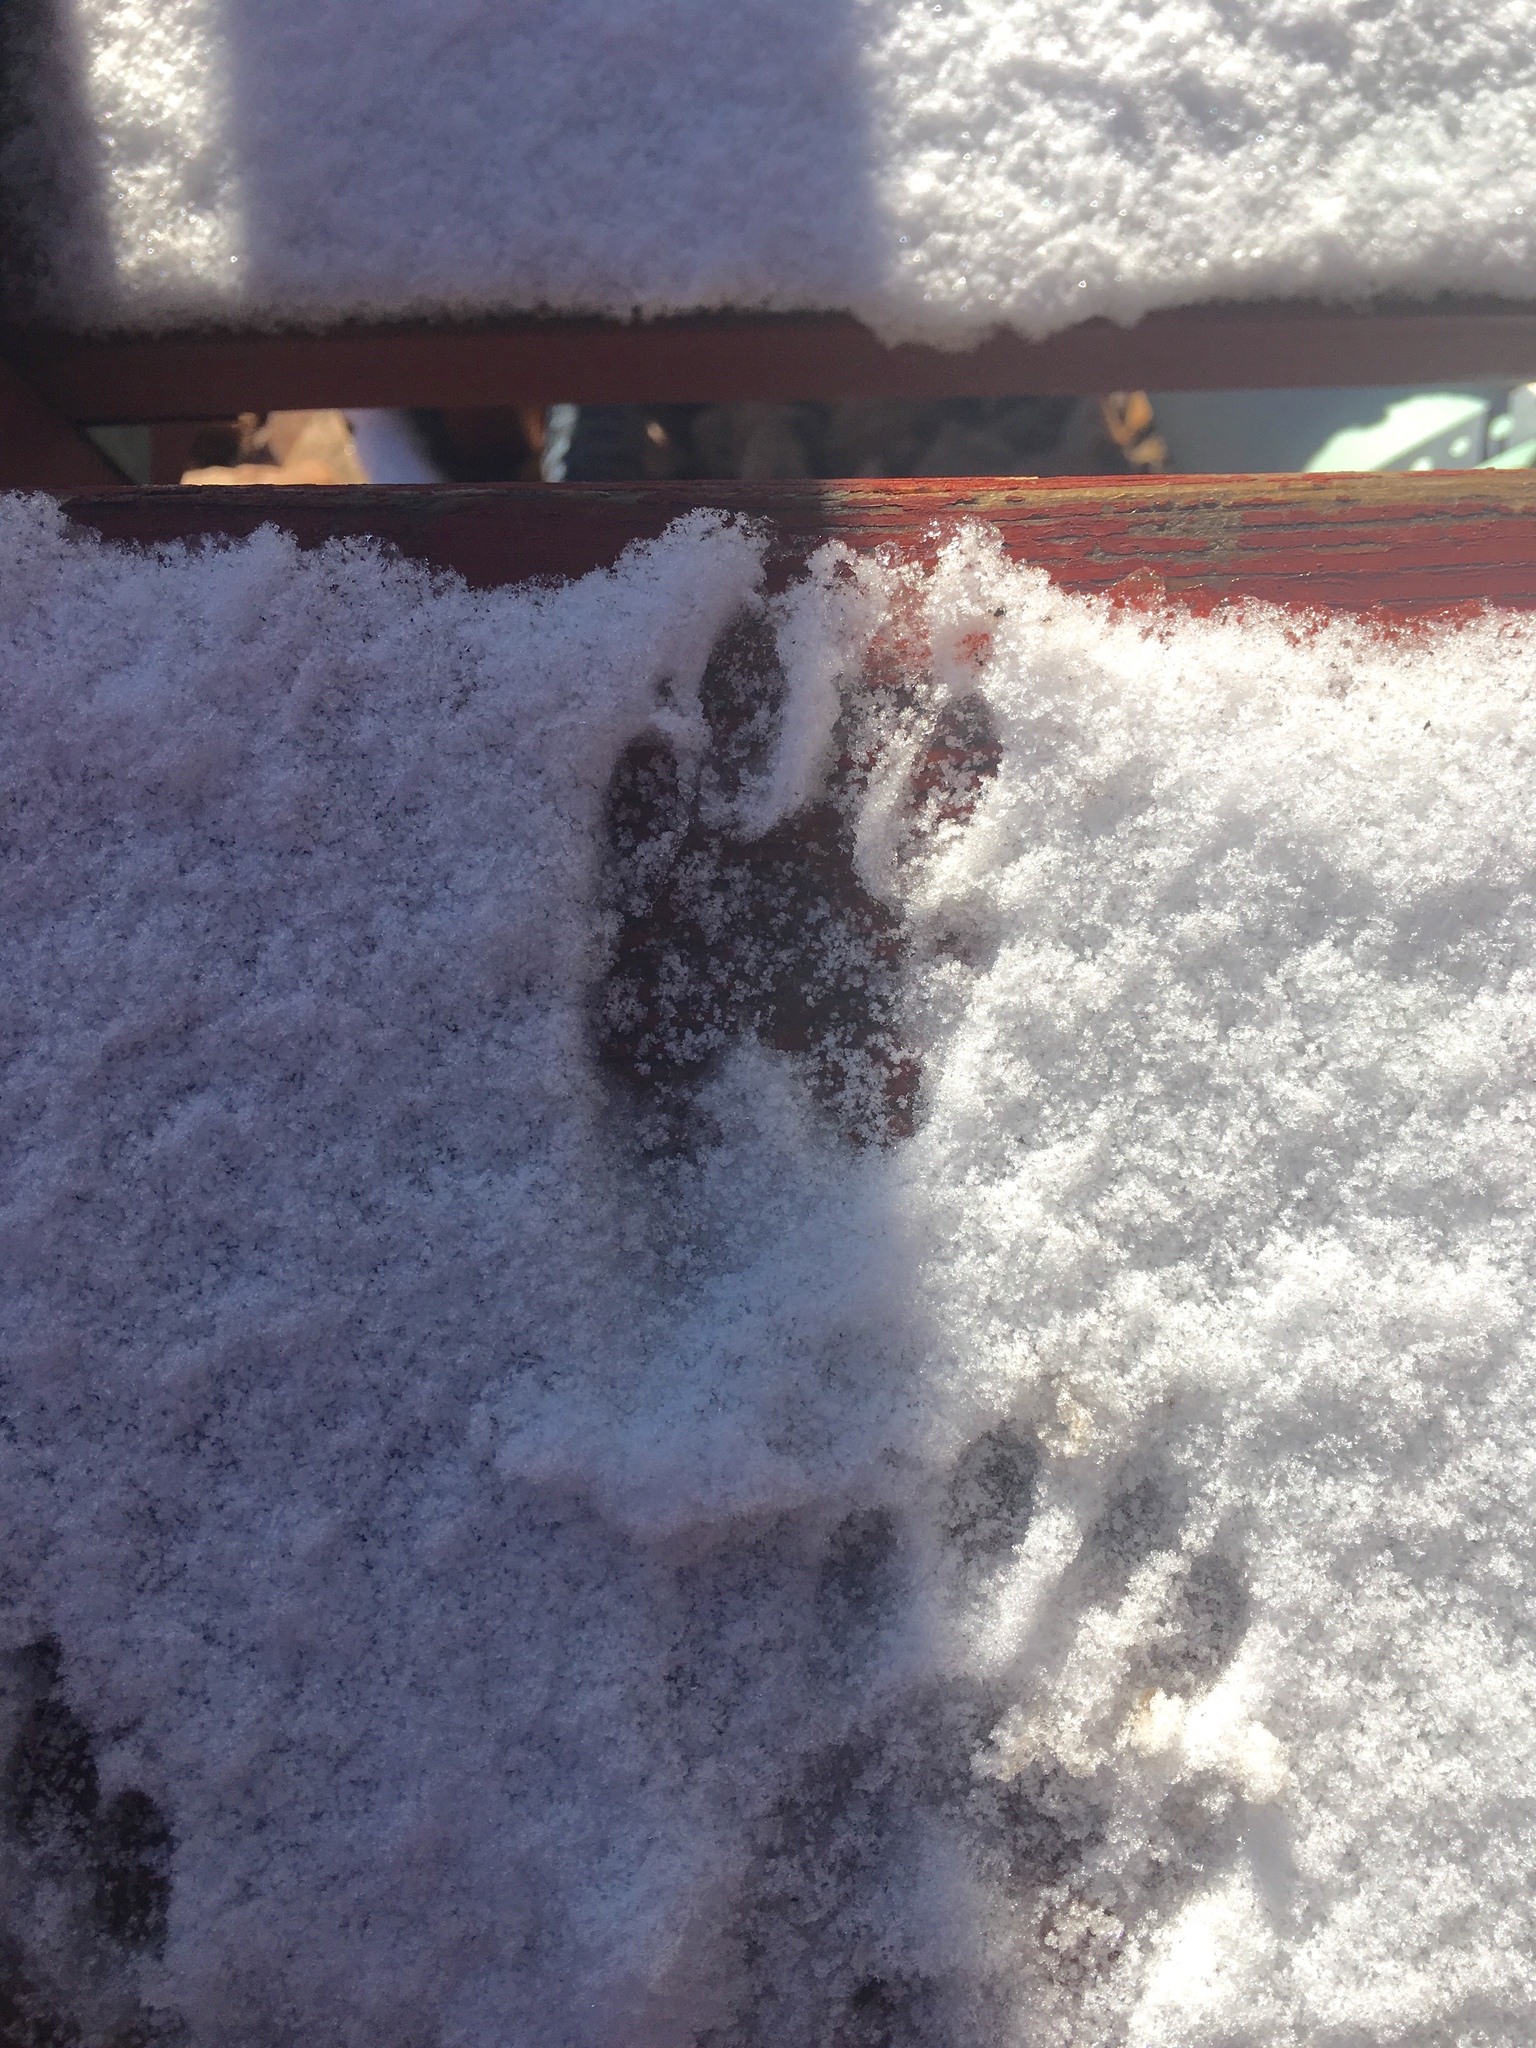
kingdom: Animalia
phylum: Chordata
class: Mammalia
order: Carnivora
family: Procyonidae
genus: Procyon
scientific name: Procyon lotor
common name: Raccoon
